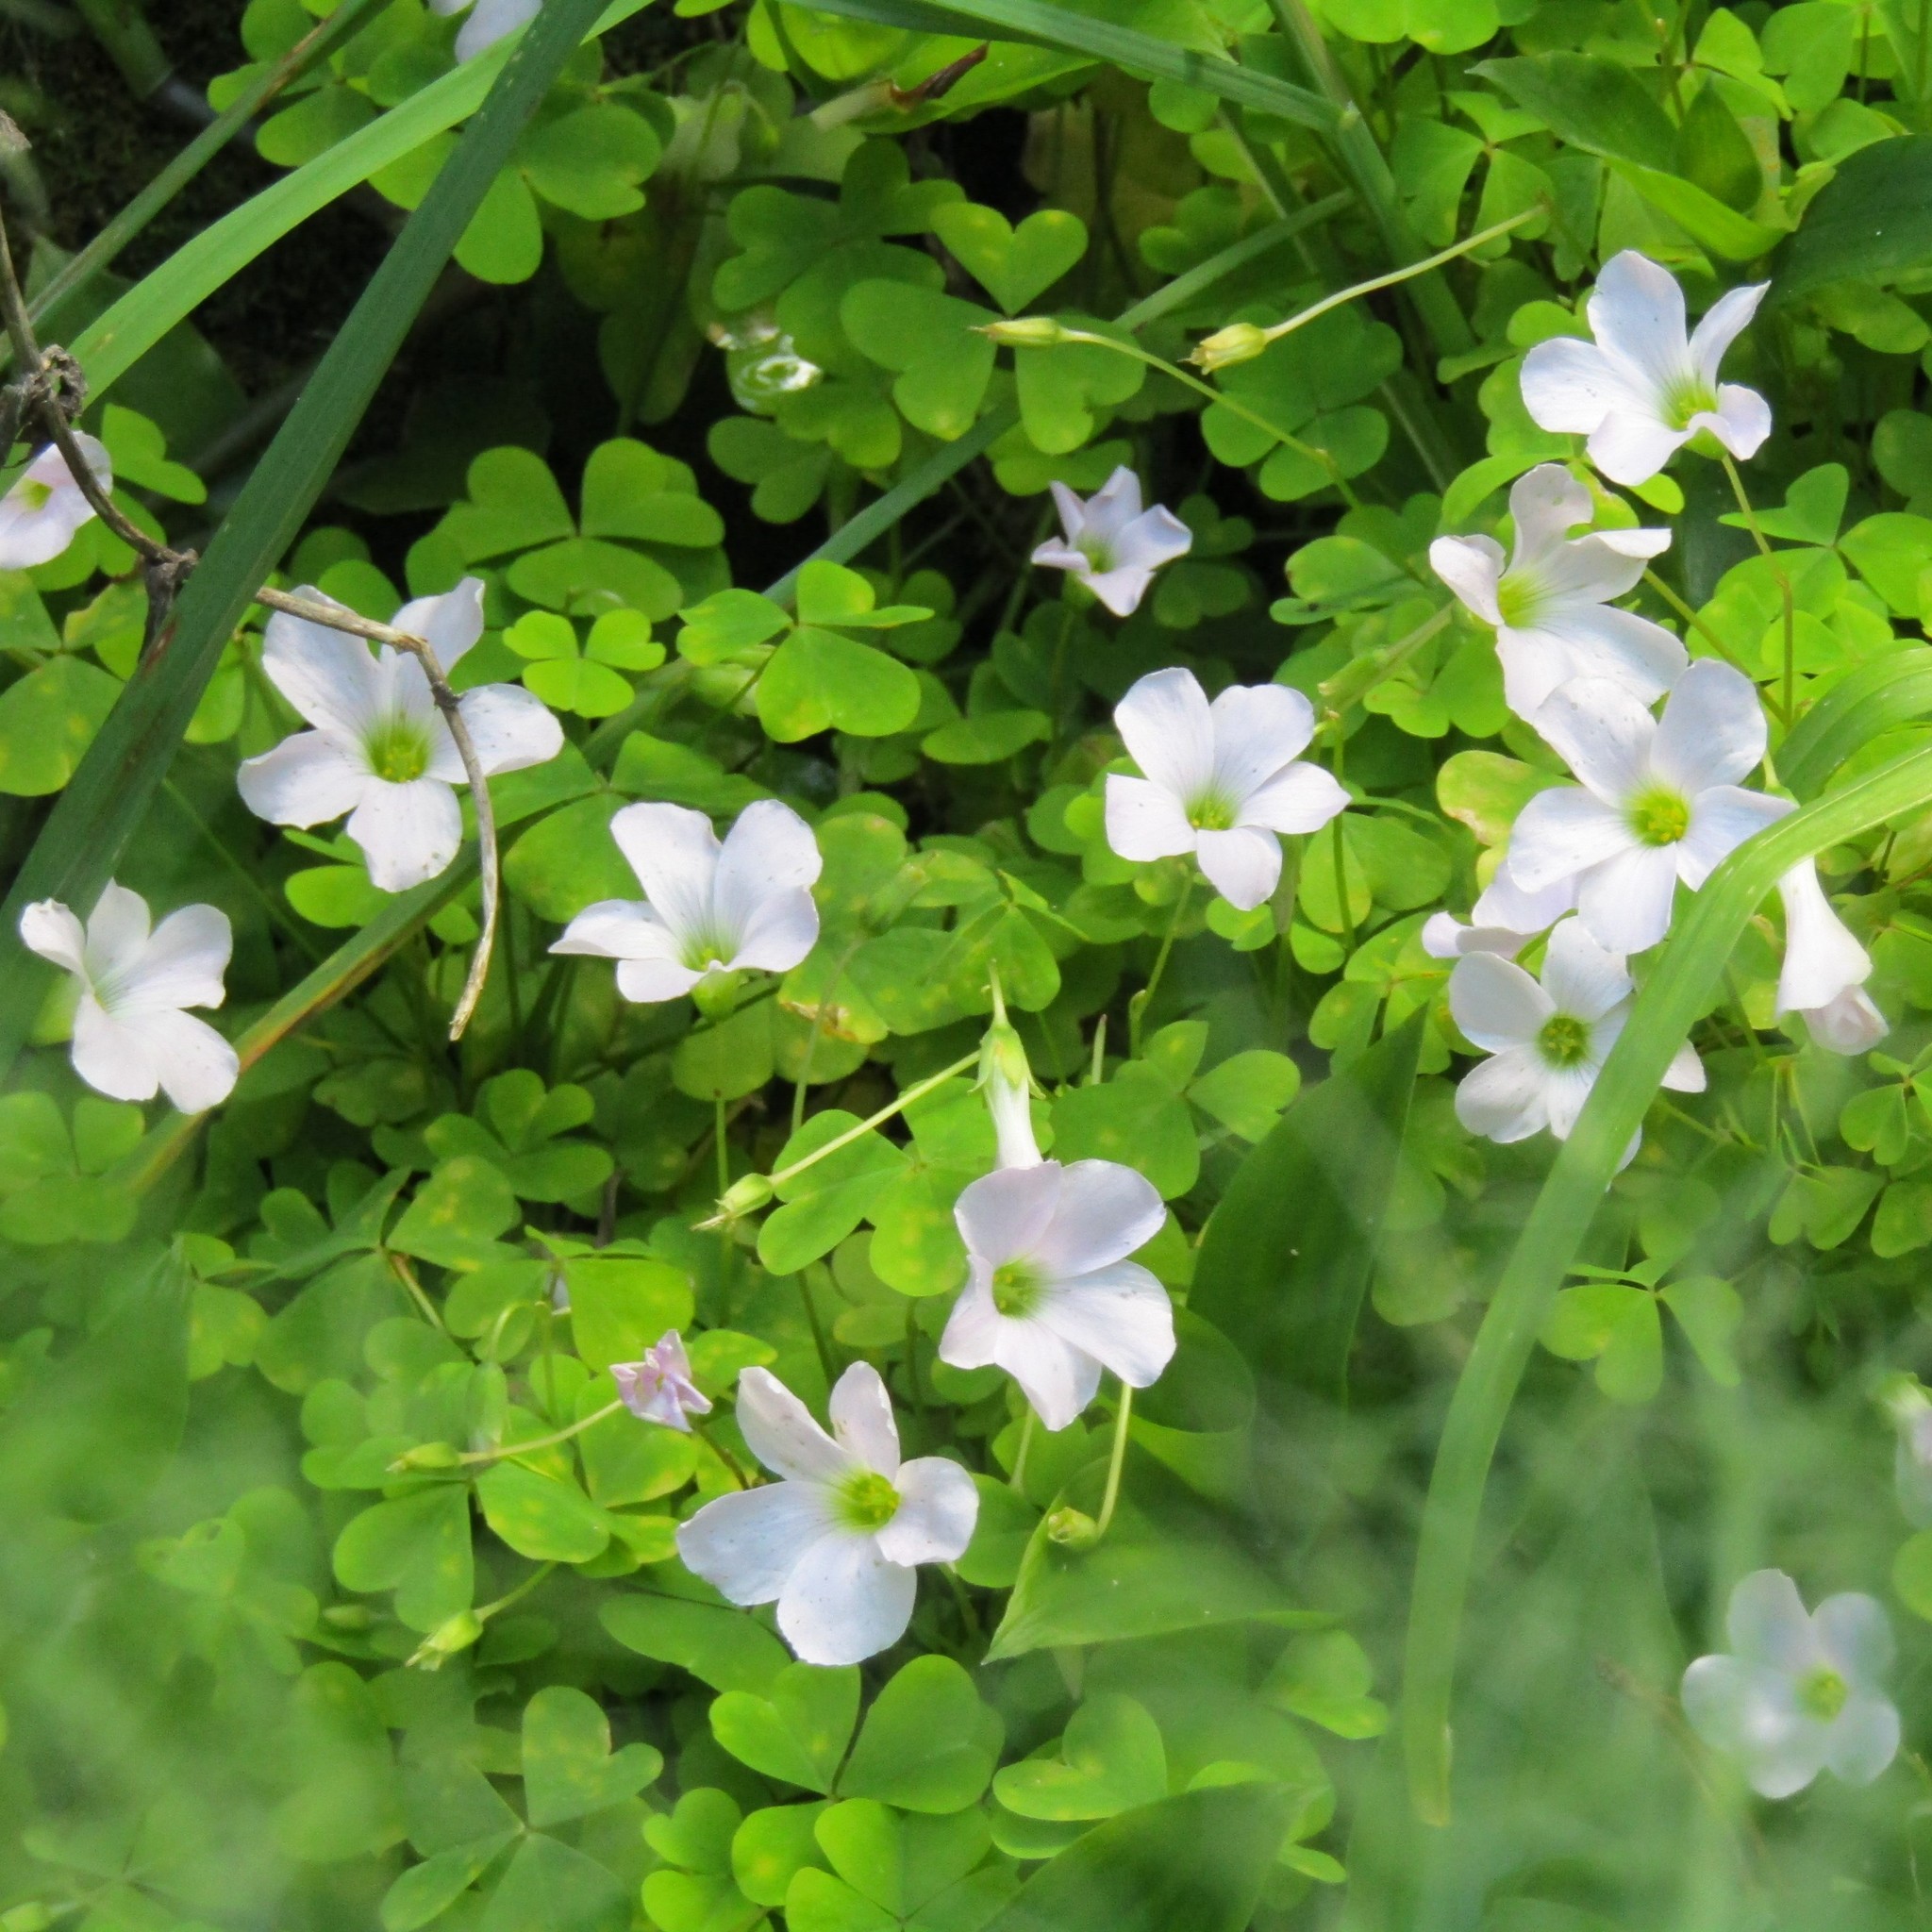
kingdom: Plantae
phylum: Tracheophyta
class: Magnoliopsida
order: Oxalidales
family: Oxalidaceae
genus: Oxalis
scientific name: Oxalis incarnata
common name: Pale pink-sorrel
